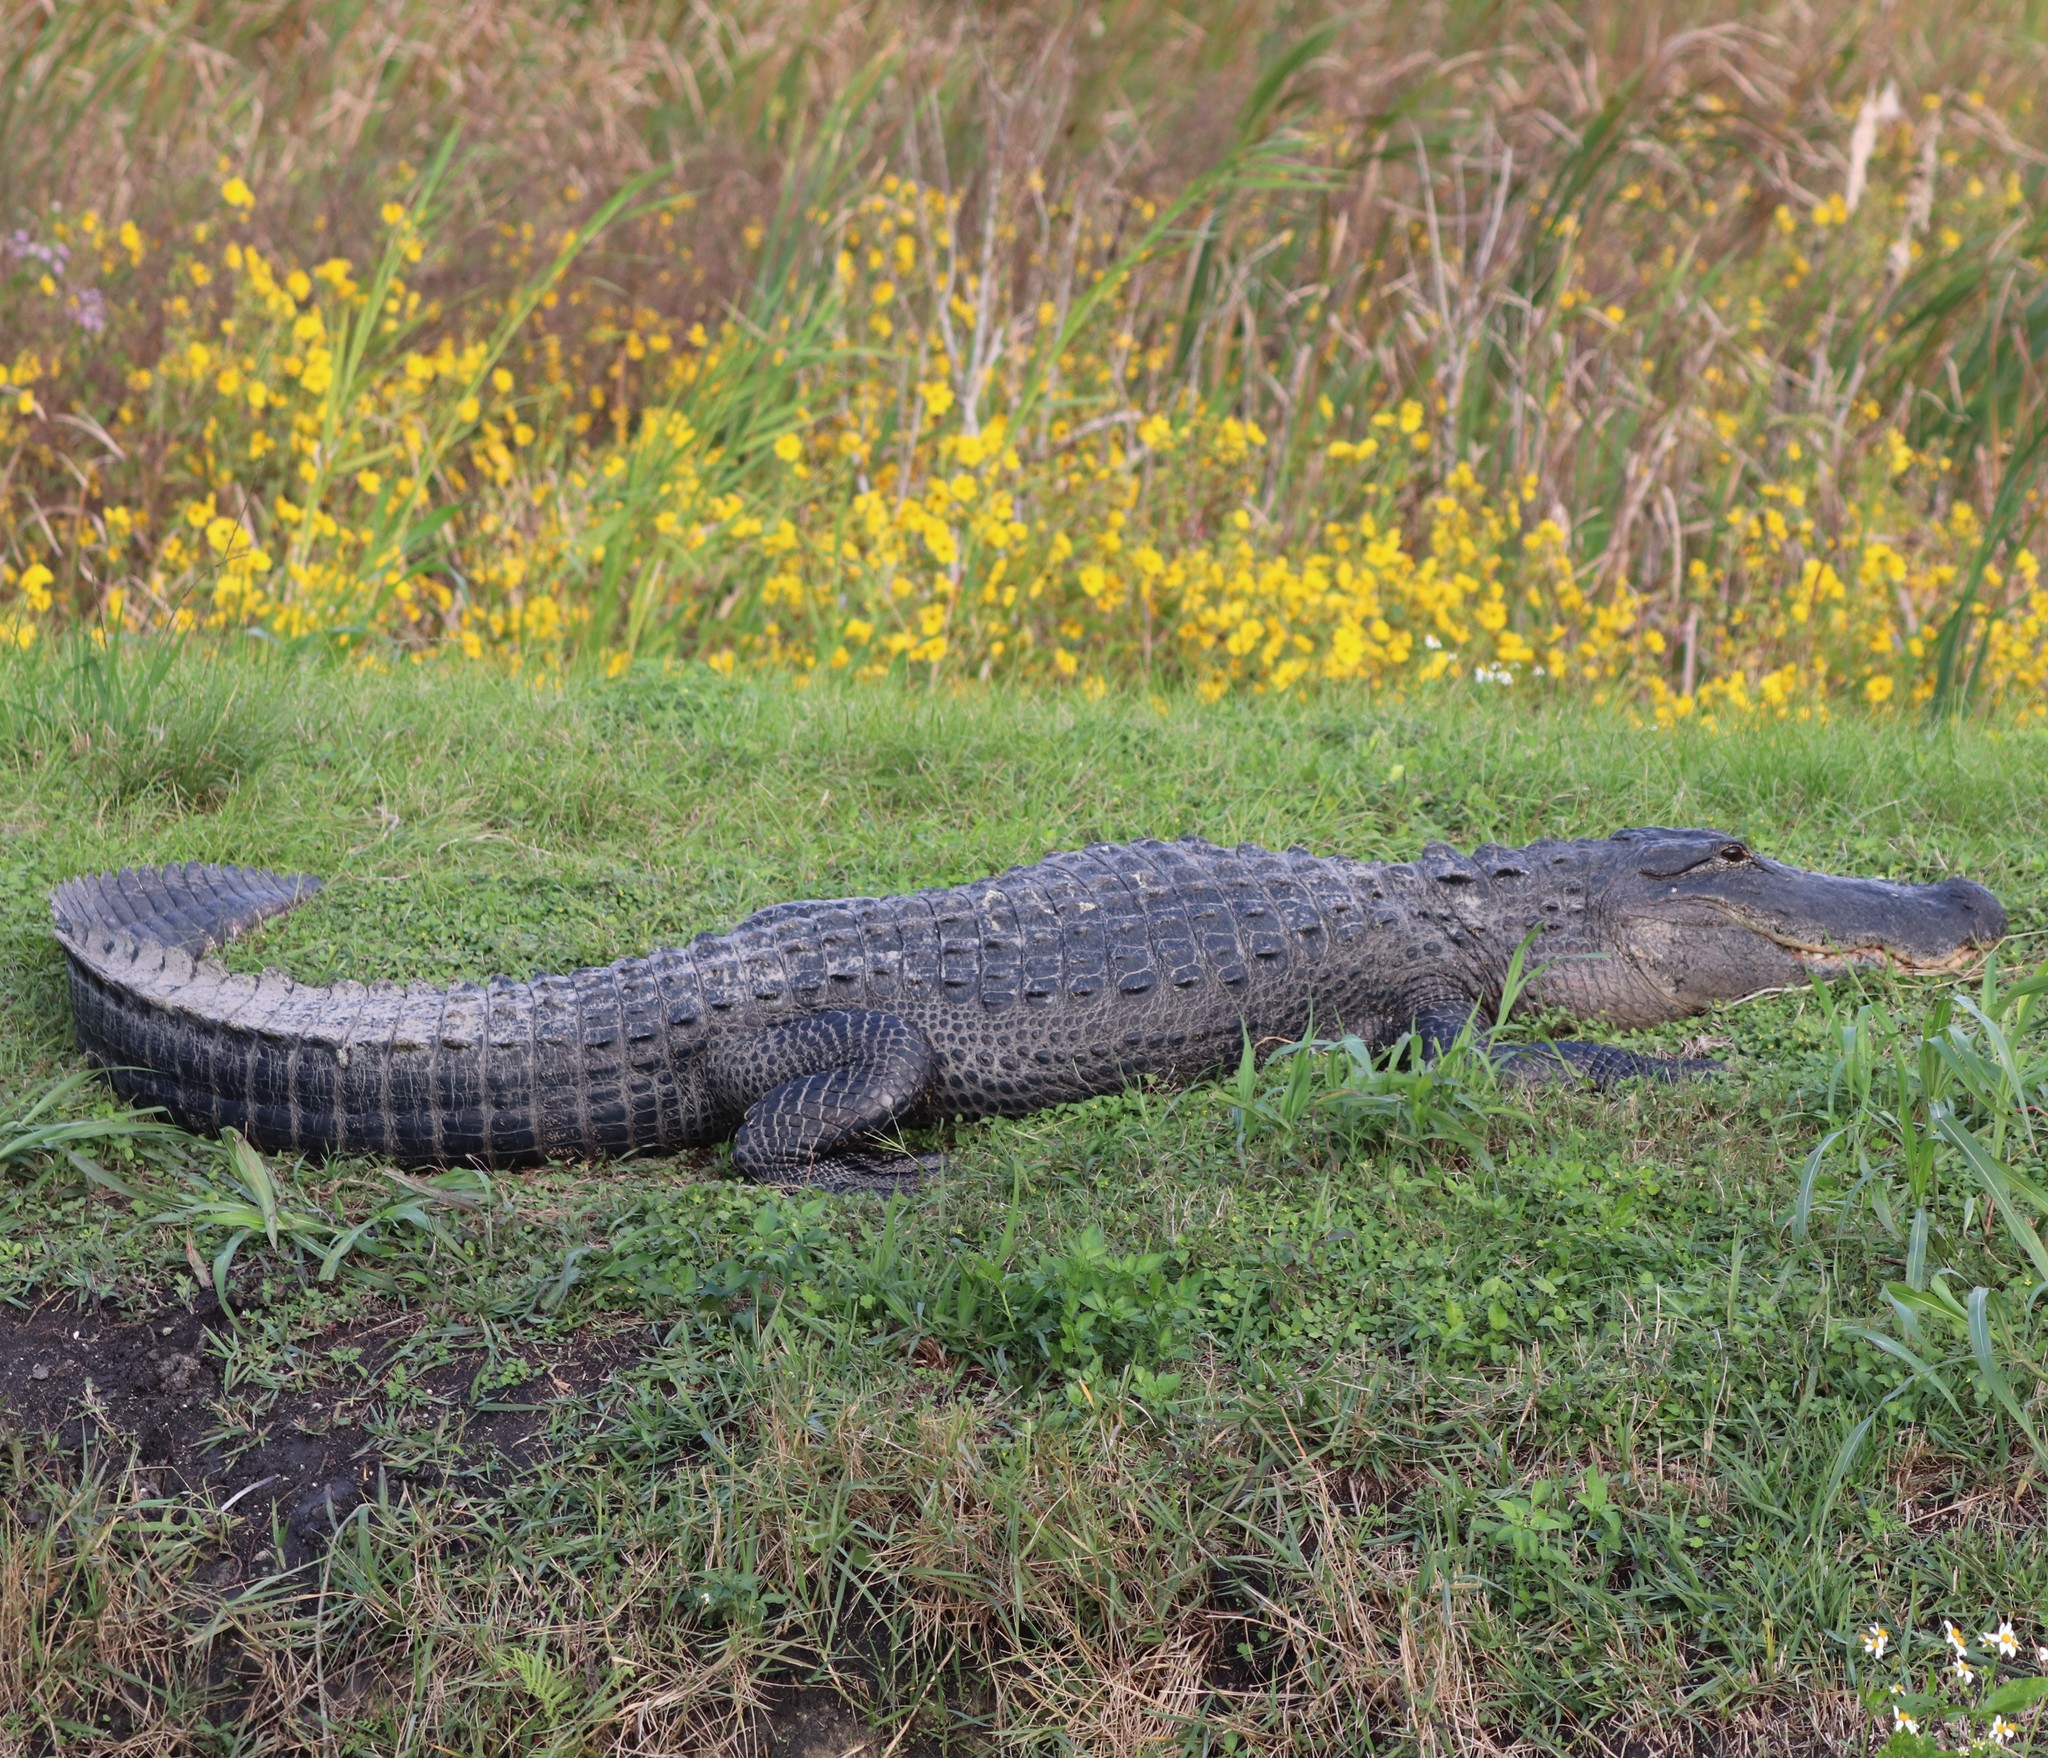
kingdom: Animalia
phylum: Chordata
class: Crocodylia
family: Alligatoridae
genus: Alligator
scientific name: Alligator mississippiensis
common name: American alligator
